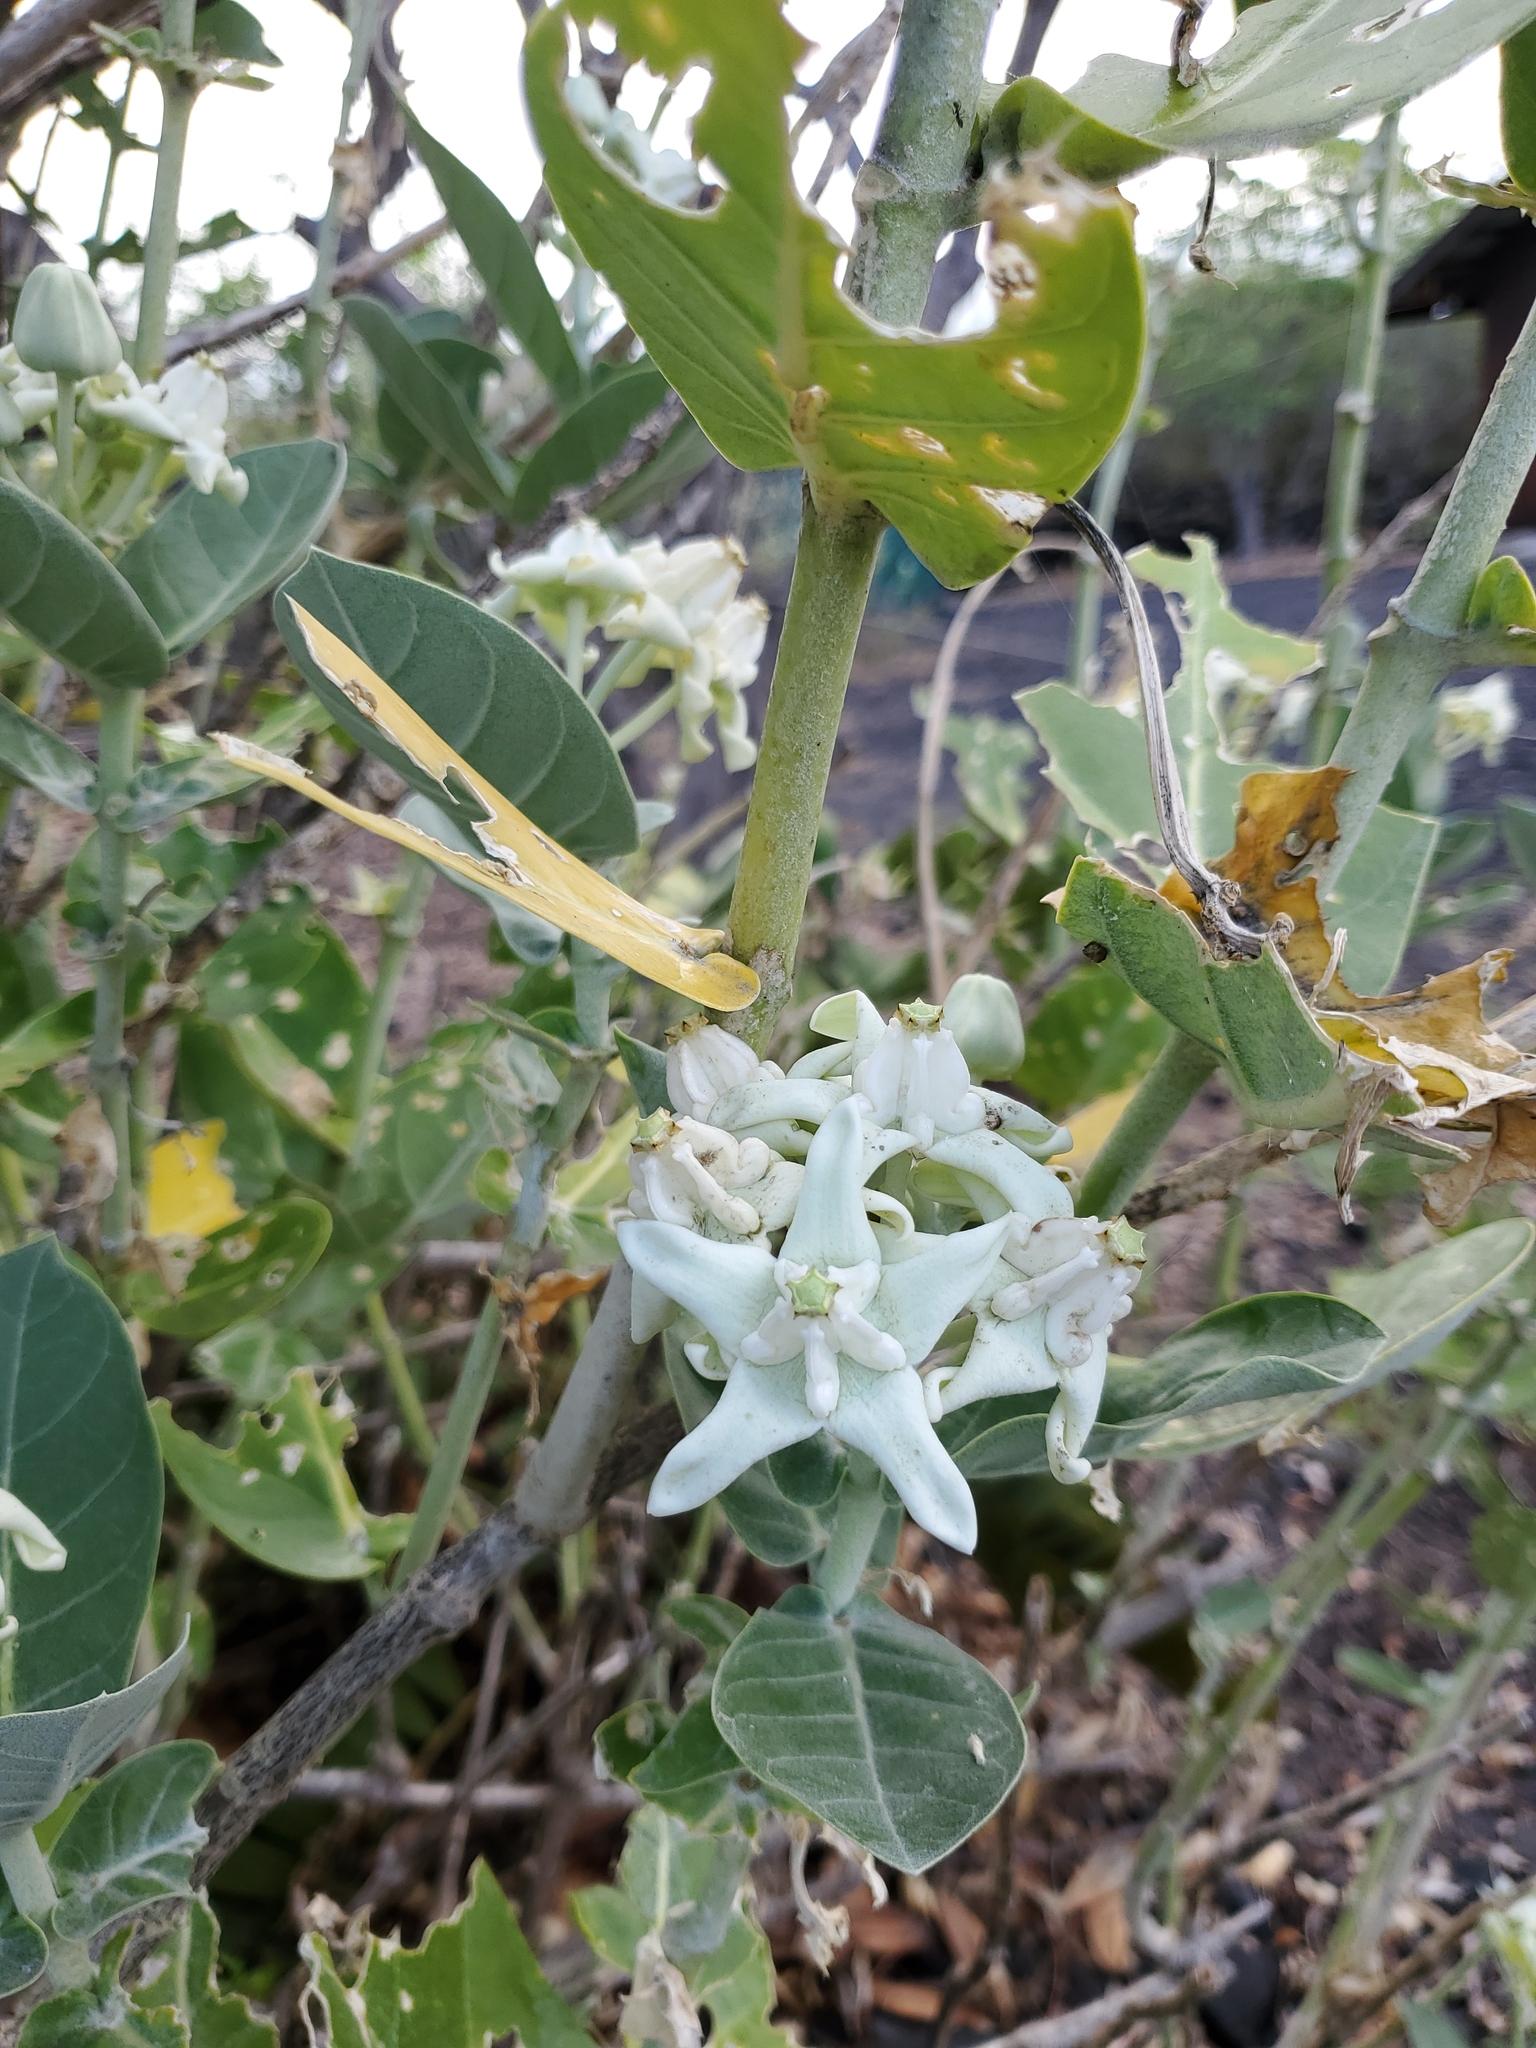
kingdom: Plantae
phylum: Tracheophyta
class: Magnoliopsida
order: Gentianales
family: Apocynaceae
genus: Calotropis
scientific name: Calotropis gigantea
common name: Crown flower
